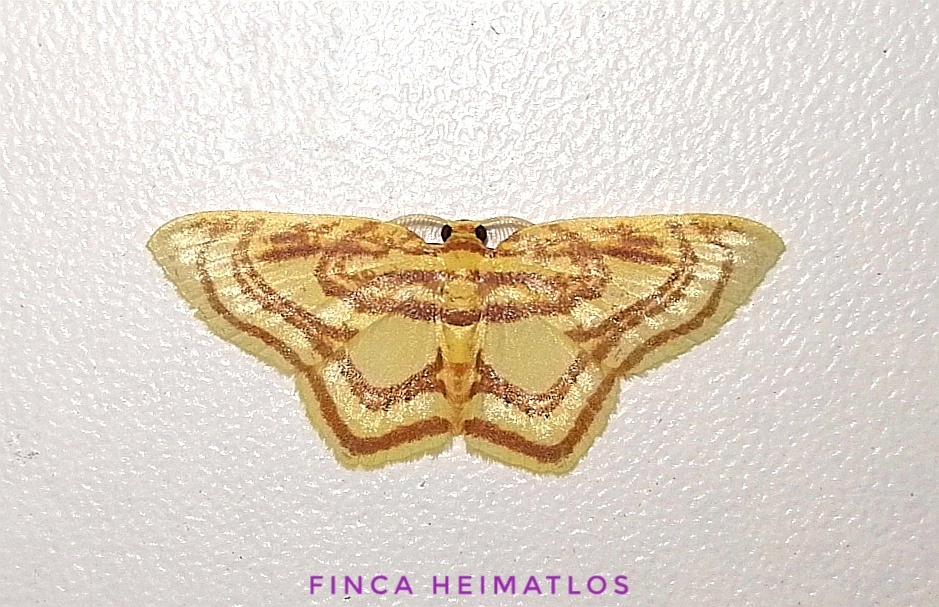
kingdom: Animalia
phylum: Arthropoda
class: Insecta
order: Lepidoptera
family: Geometridae
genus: Eois
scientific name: Eois isographata
